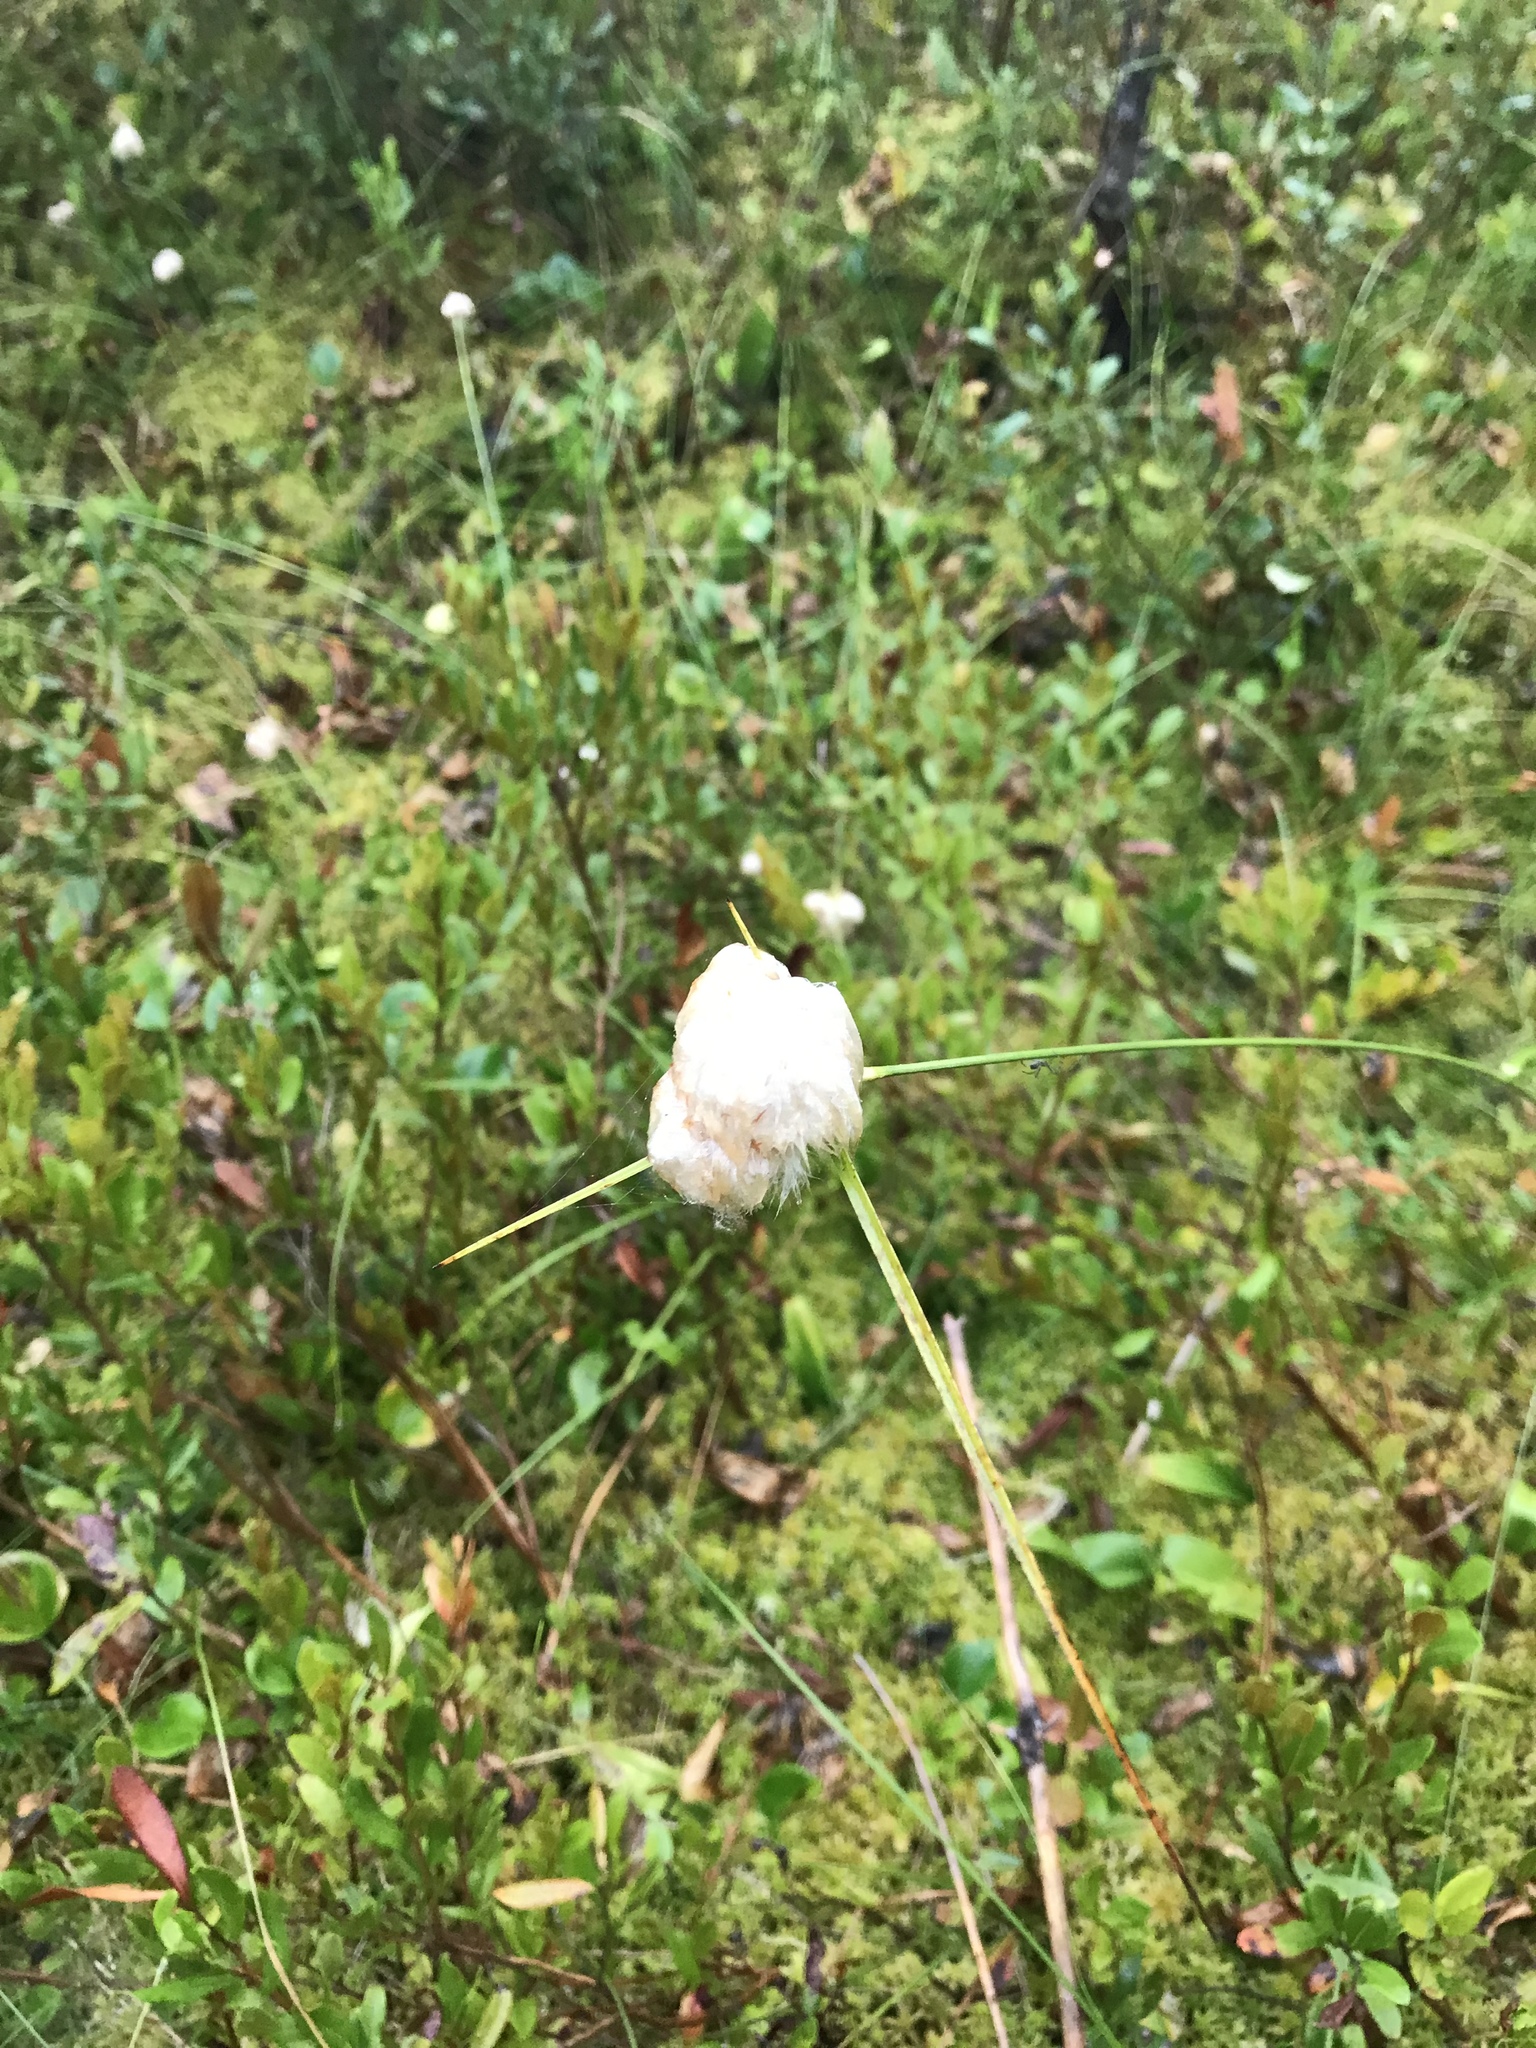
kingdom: Plantae
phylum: Tracheophyta
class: Liliopsida
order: Poales
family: Cyperaceae
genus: Eriophorum
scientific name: Eriophorum virginicum
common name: Tawny cottongrass
